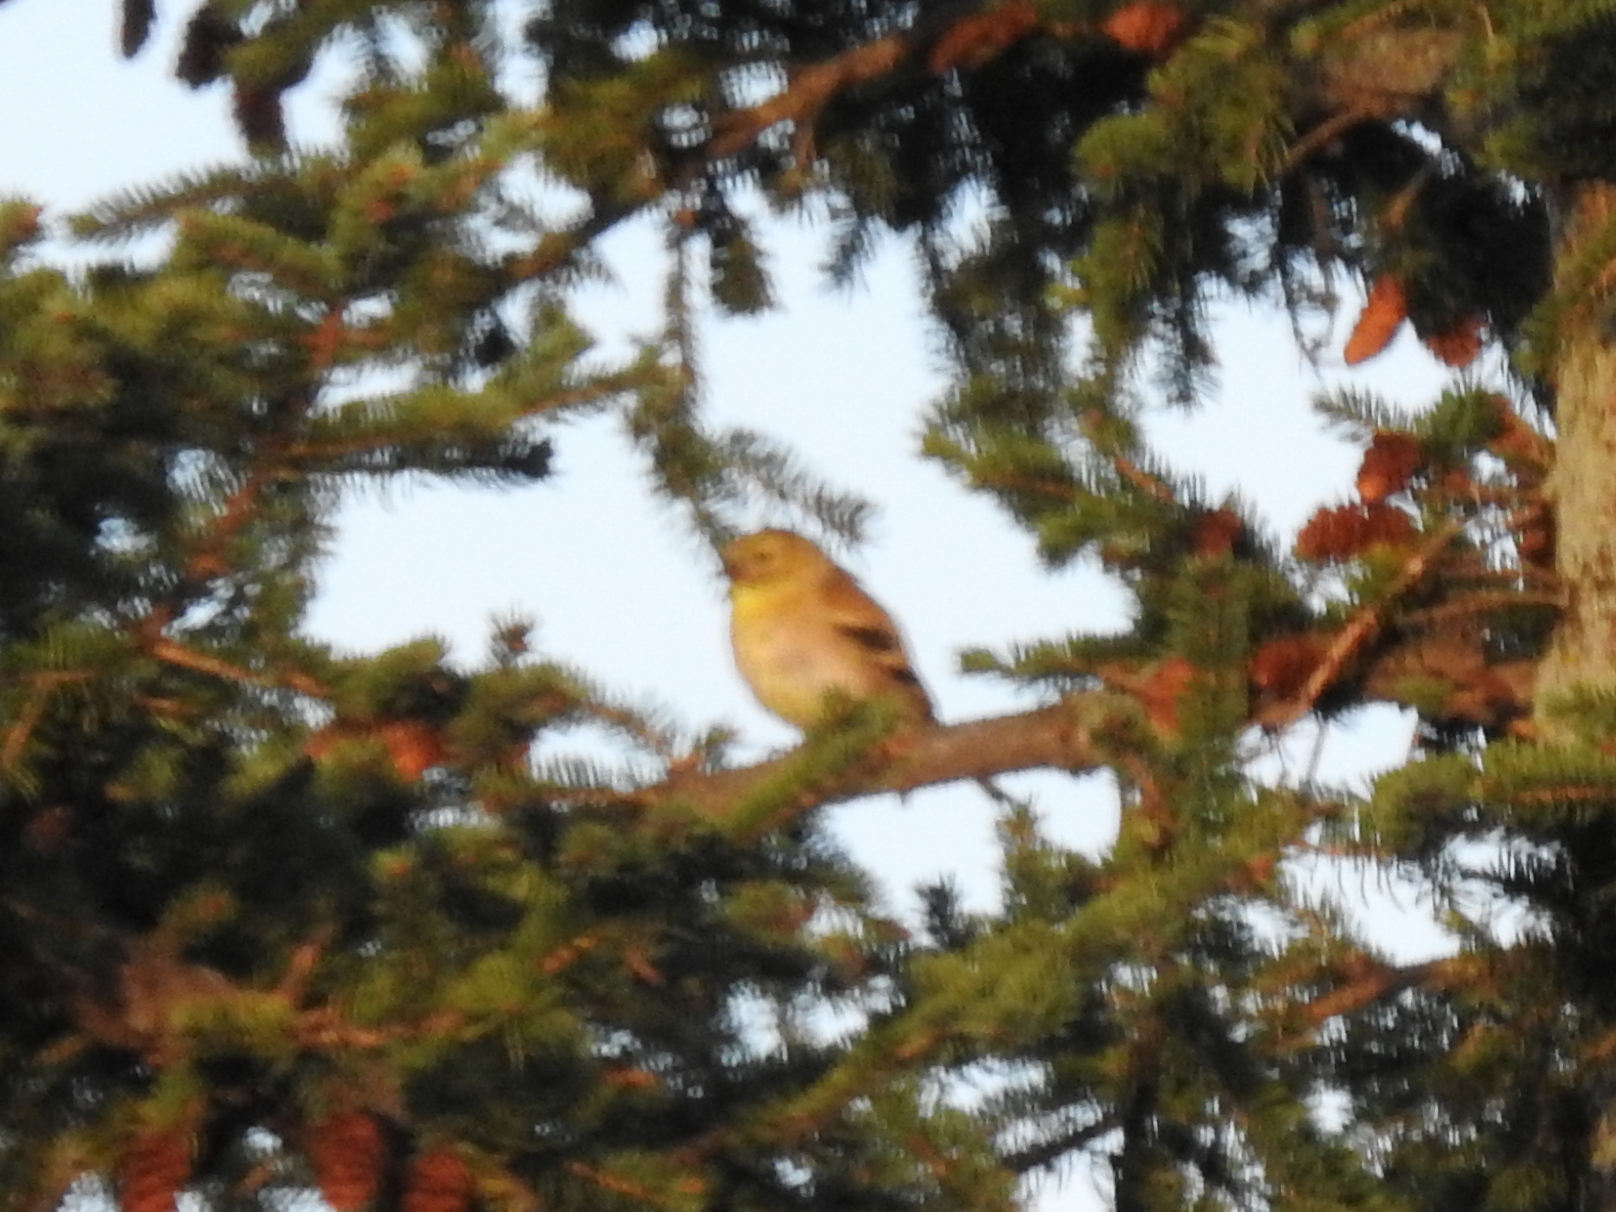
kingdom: Animalia
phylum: Chordata
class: Aves
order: Passeriformes
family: Fringillidae
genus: Spinus
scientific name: Spinus tristis
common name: American goldfinch
